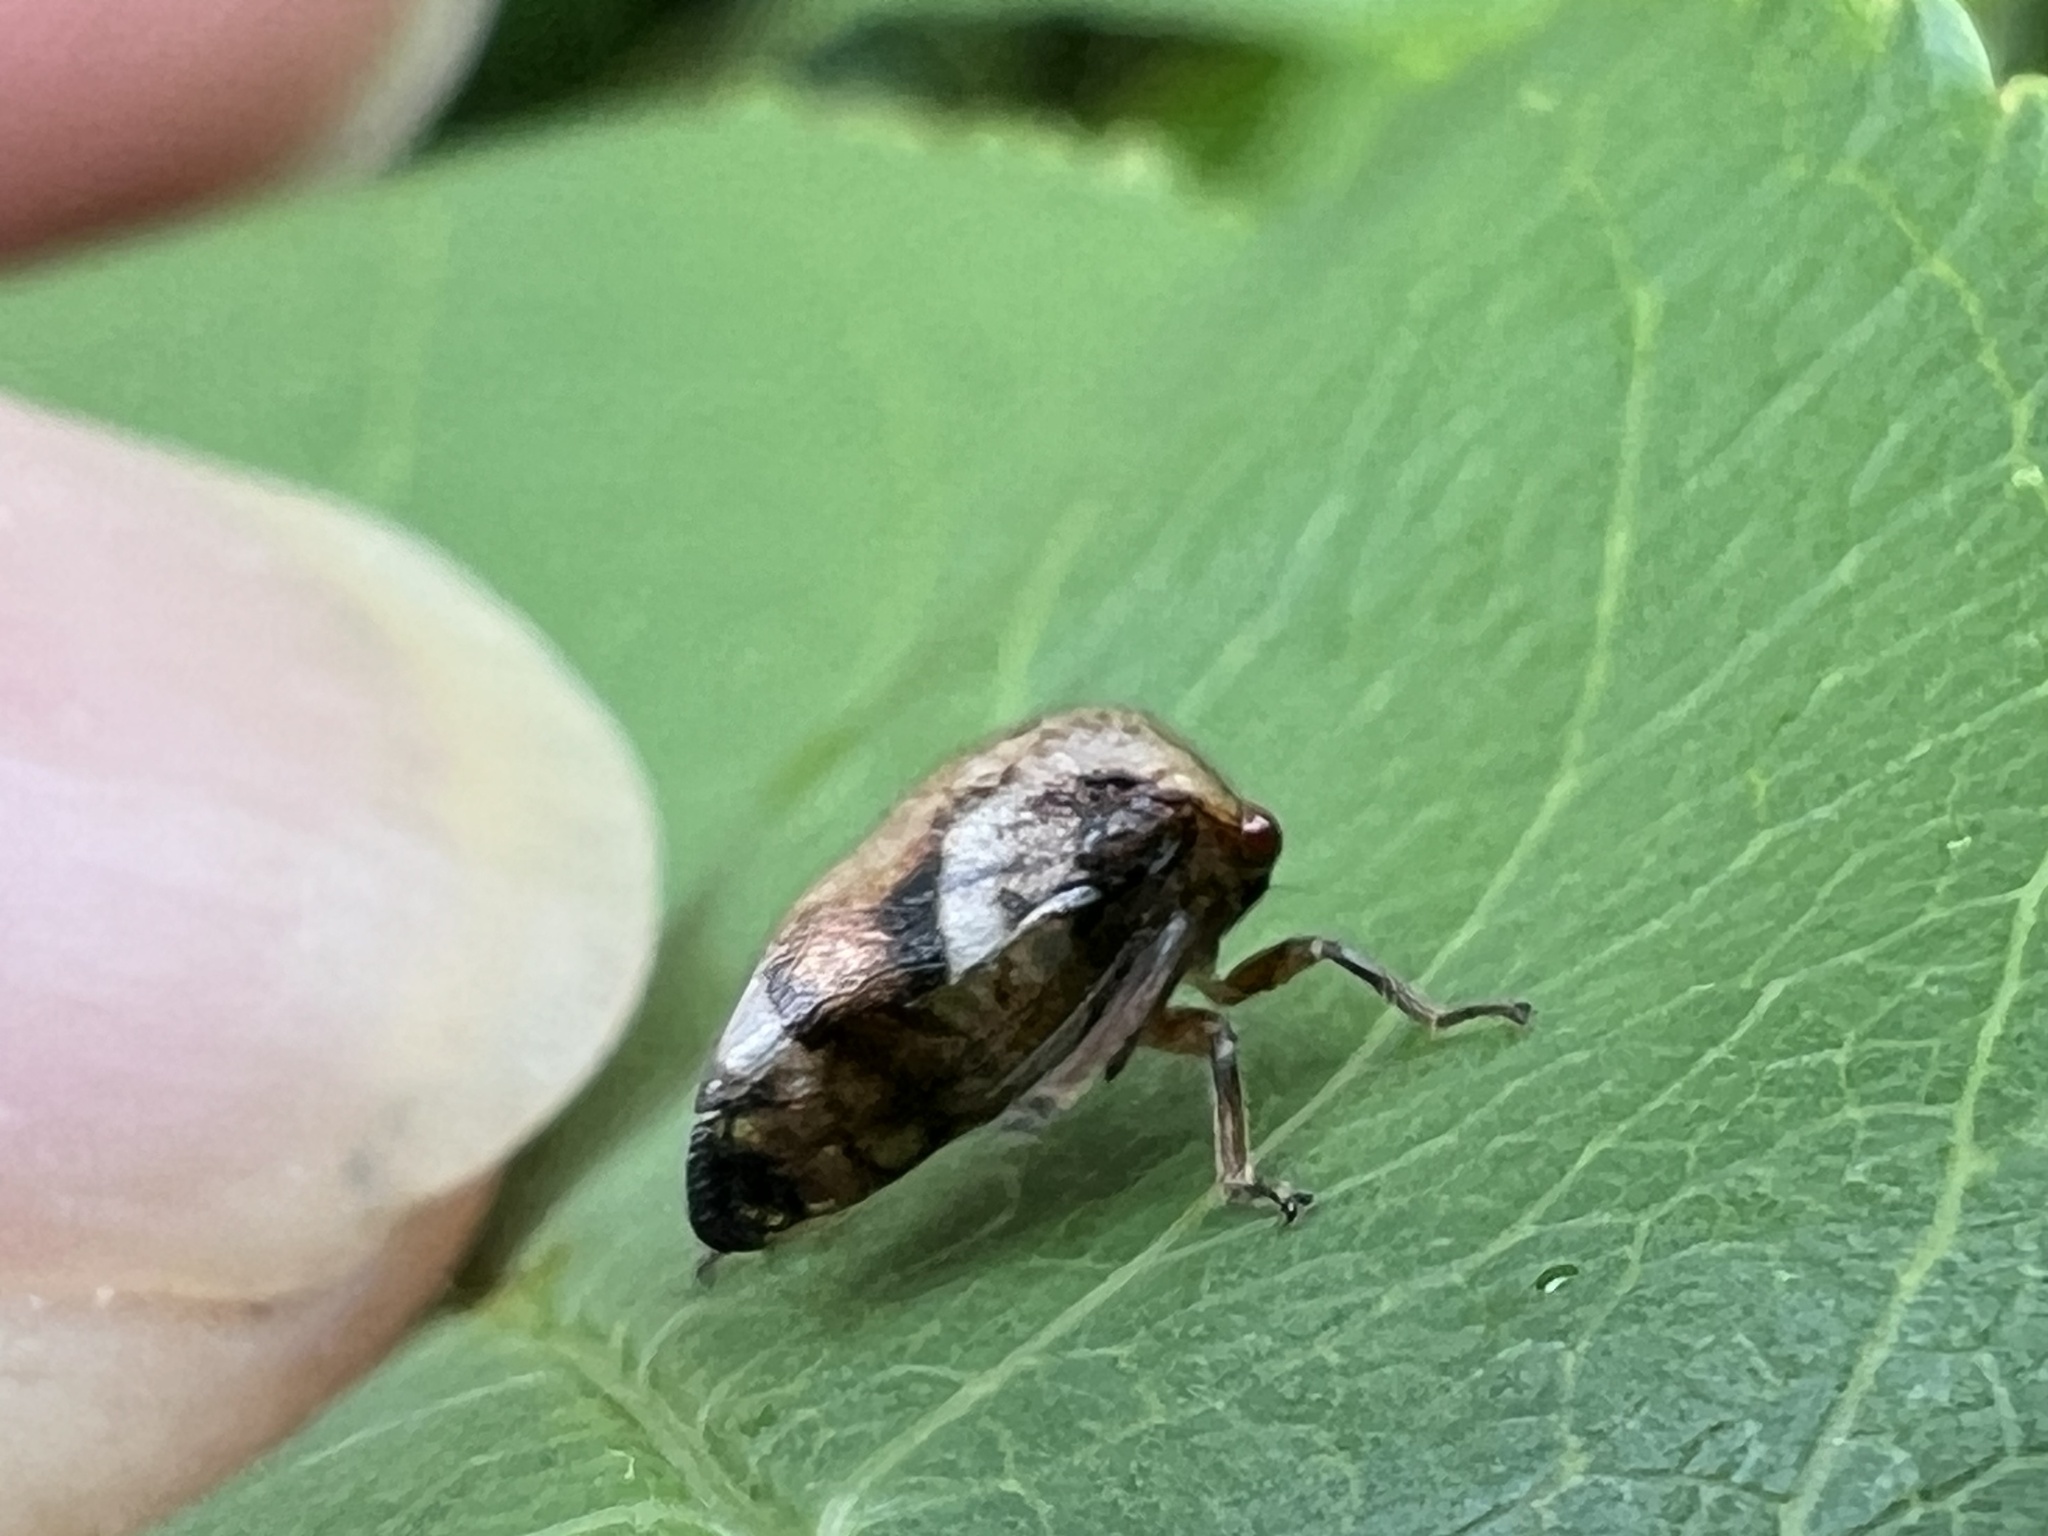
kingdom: Animalia
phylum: Arthropoda
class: Insecta
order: Hemiptera
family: Membracidae
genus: Vanduzea
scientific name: Vanduzea arquata
